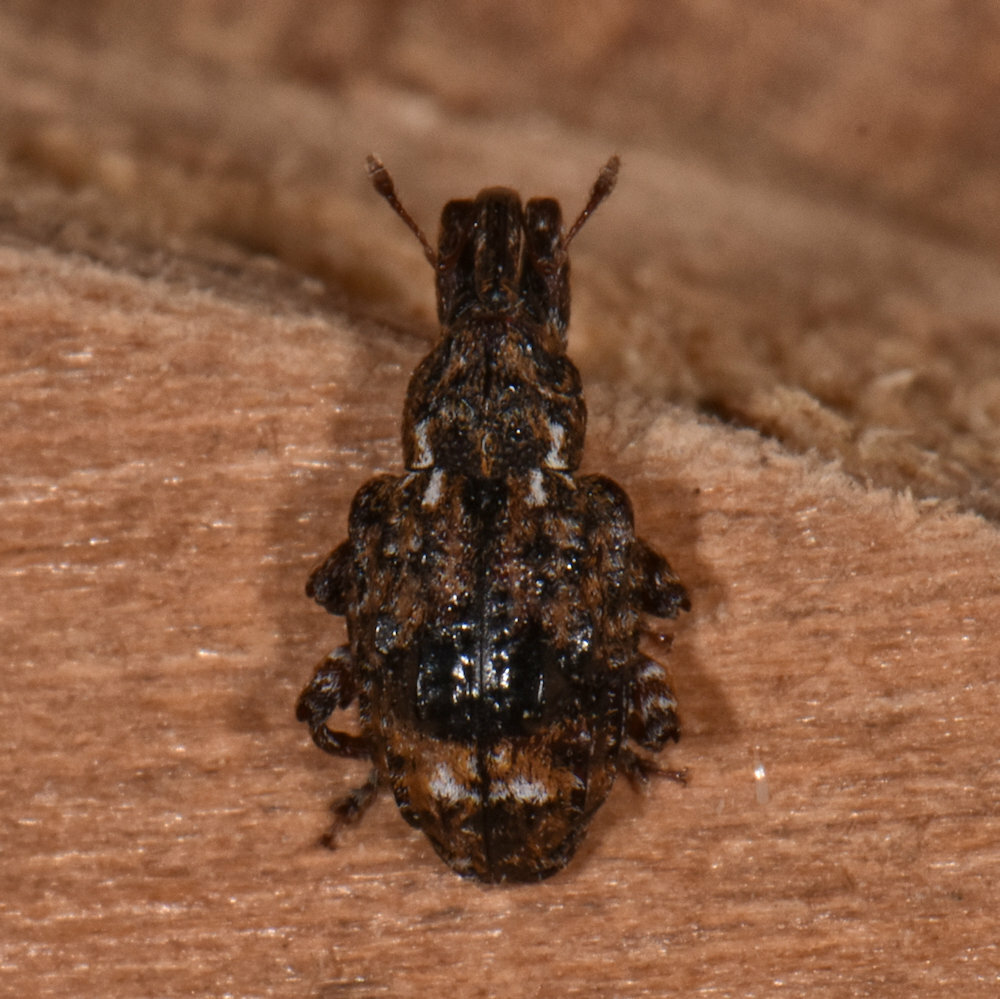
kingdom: Animalia
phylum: Arthropoda
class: Insecta
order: Coleoptera
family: Curculionidae
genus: Conotrachelus
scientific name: Conotrachelus nenuphar
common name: Plum curculio
